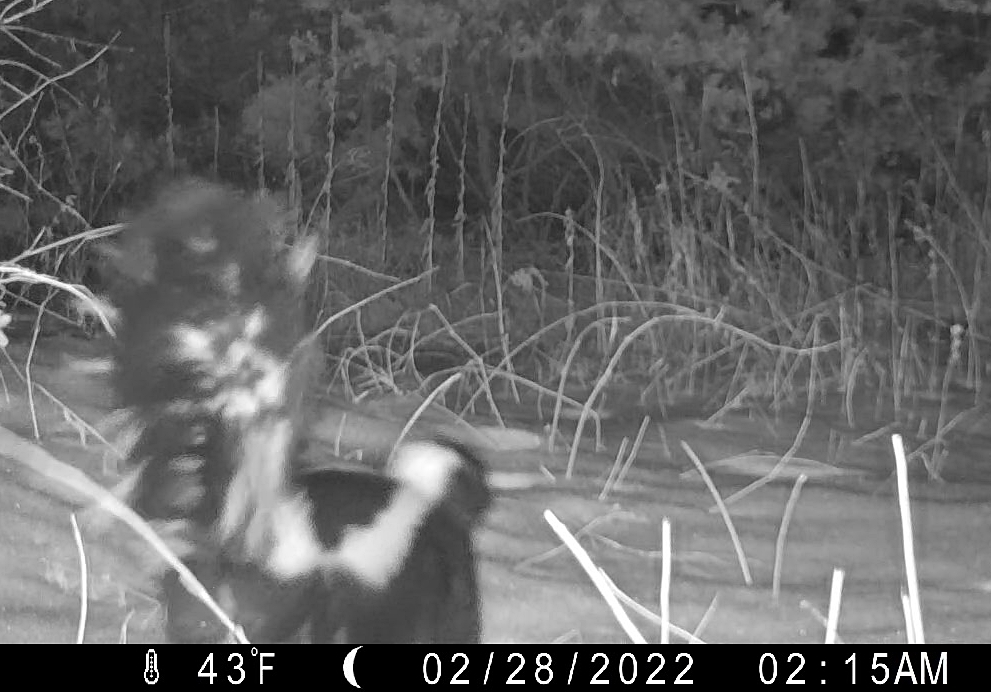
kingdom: Animalia
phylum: Chordata
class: Mammalia
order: Carnivora
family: Mephitidae
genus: Mephitis
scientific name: Mephitis mephitis
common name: Striped skunk
